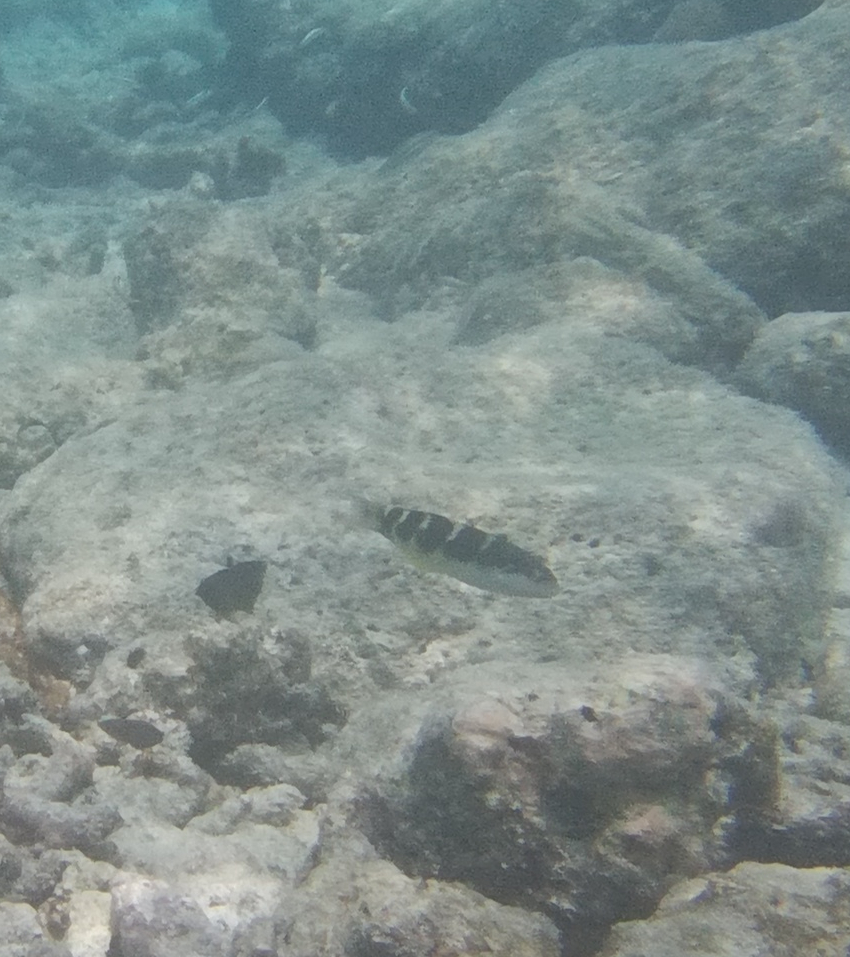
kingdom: Animalia
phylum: Chordata
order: Perciformes
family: Labridae
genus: Thalassoma
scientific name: Thalassoma jansenii
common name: Jansen's wrasse
